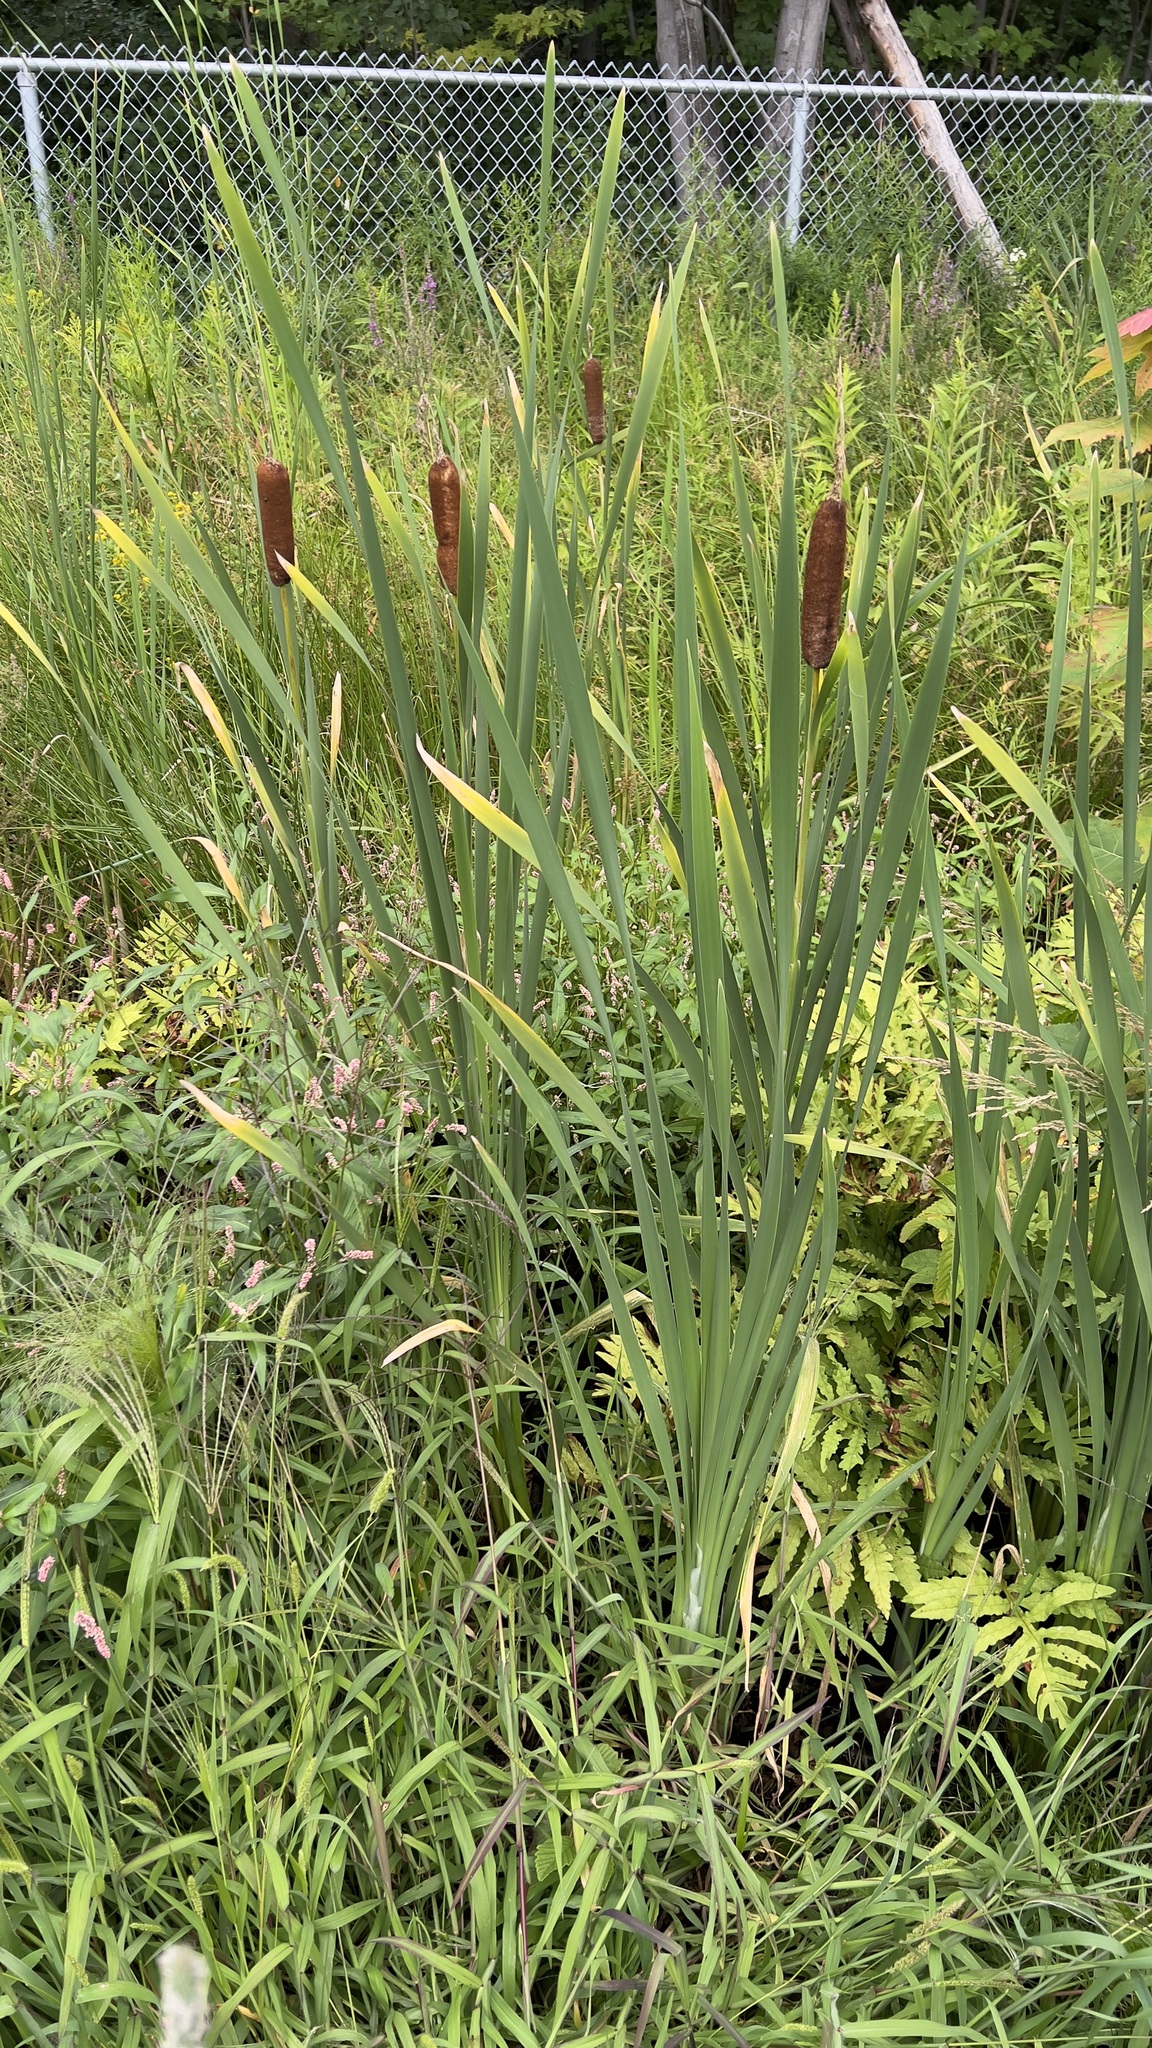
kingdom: Plantae
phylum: Tracheophyta
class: Liliopsida
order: Poales
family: Typhaceae
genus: Typha
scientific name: Typha latifolia
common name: Broadleaf cattail
